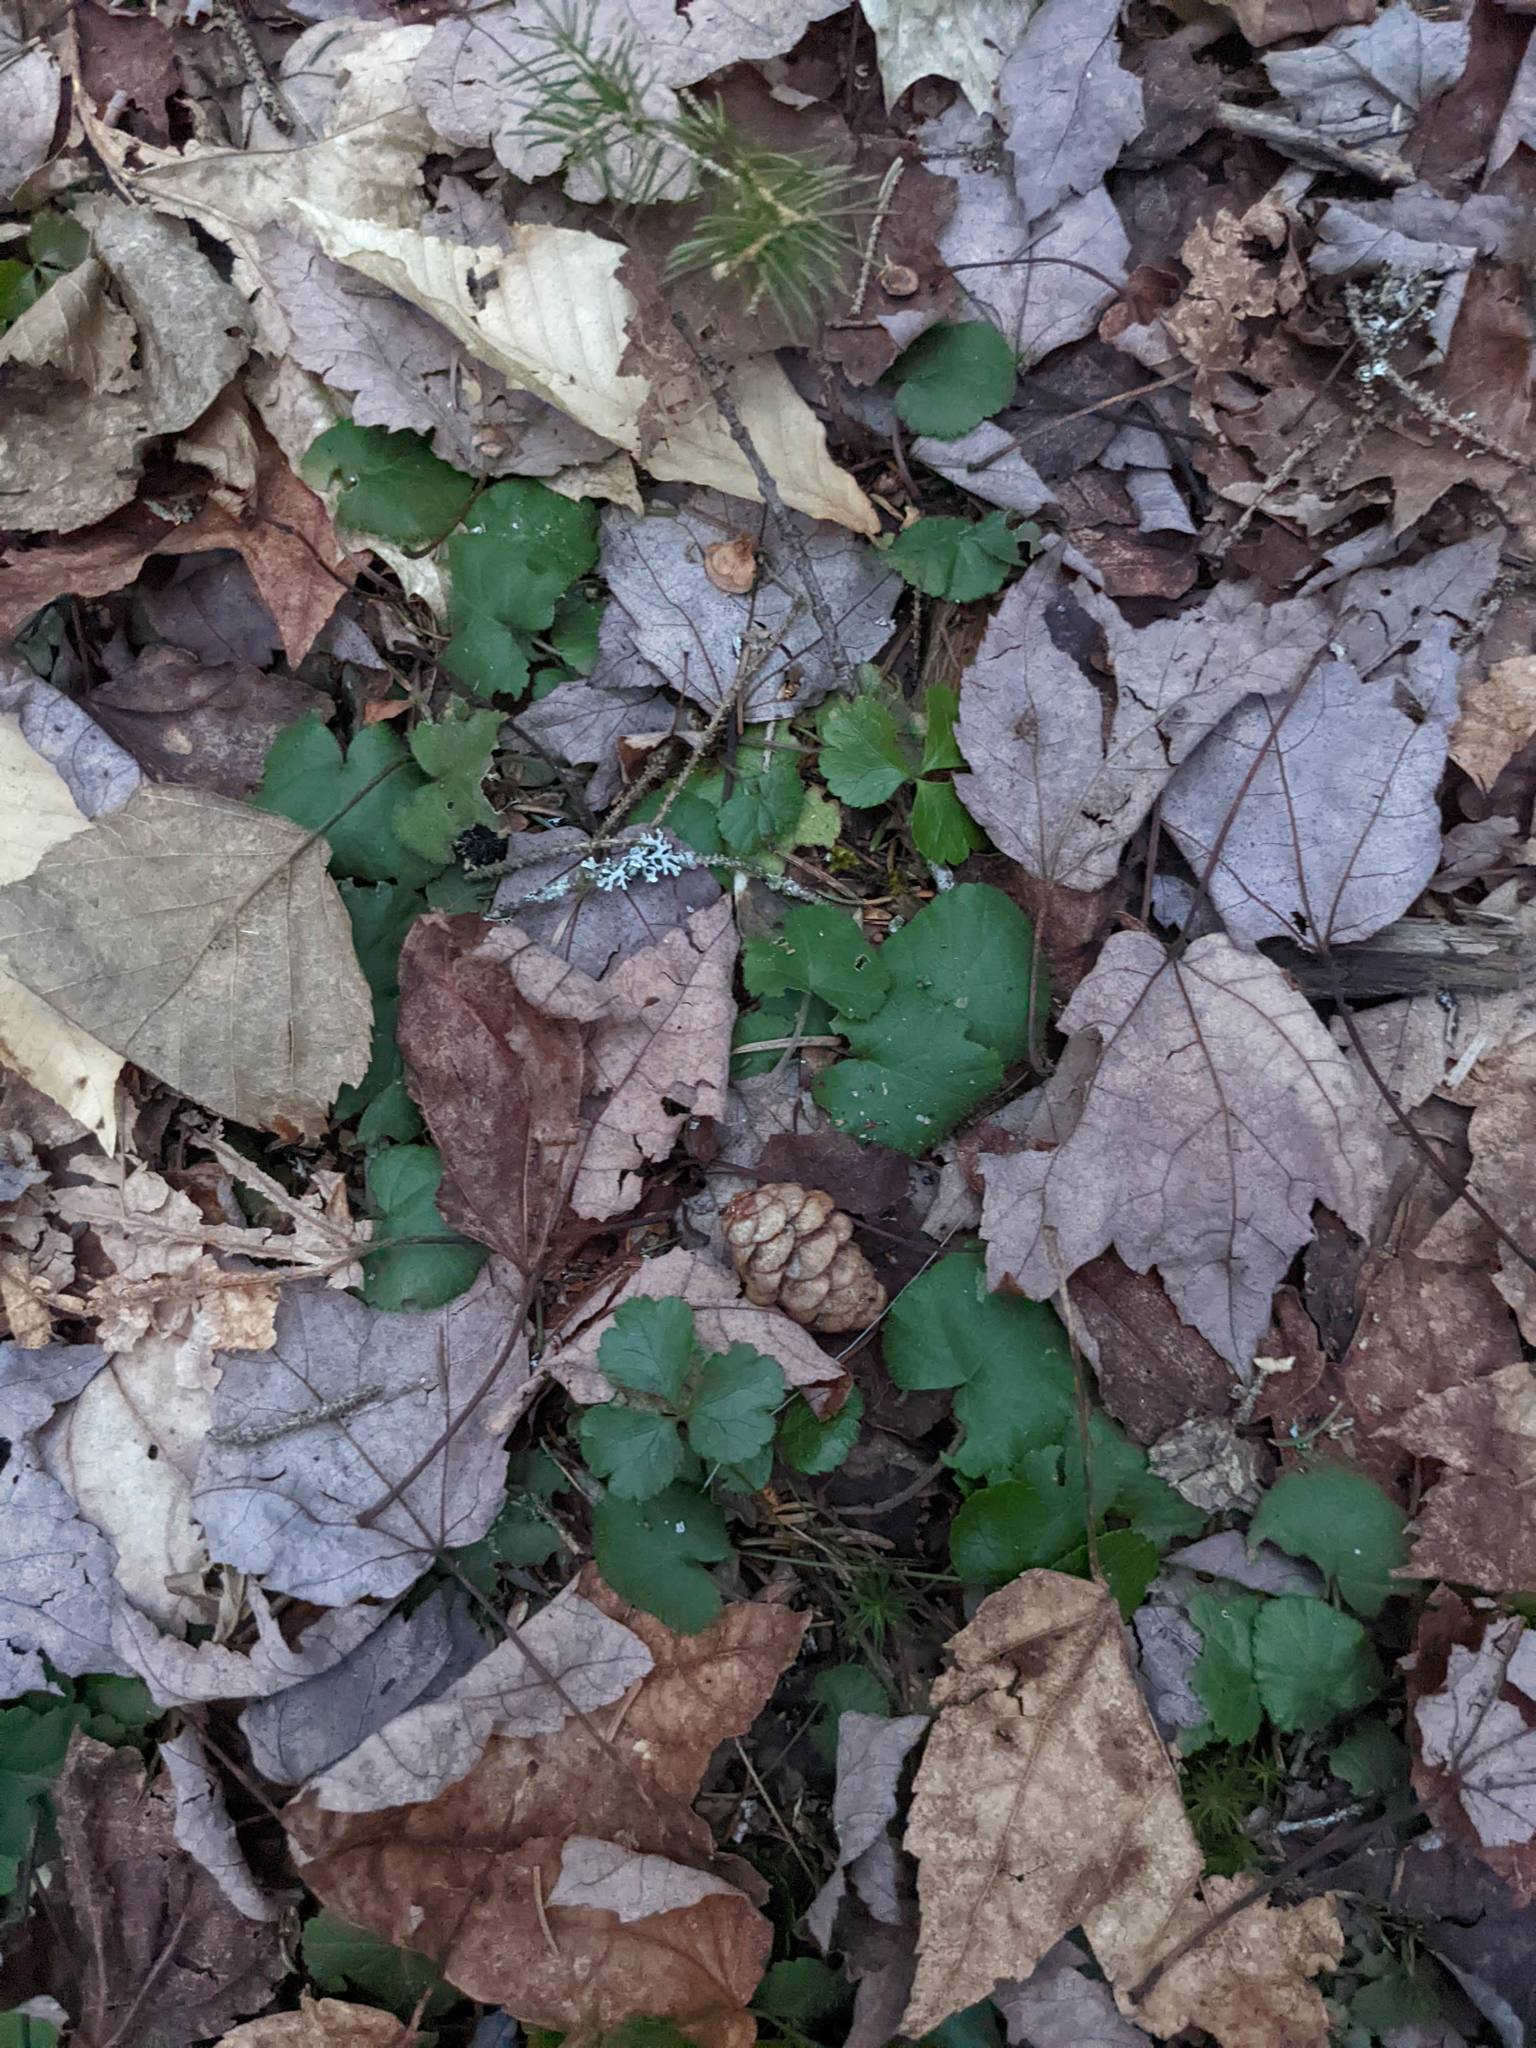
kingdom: Plantae
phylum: Tracheophyta
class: Magnoliopsida
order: Rosales
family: Rosaceae
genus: Dalibarda
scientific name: Dalibarda repens
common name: Dewdrop
